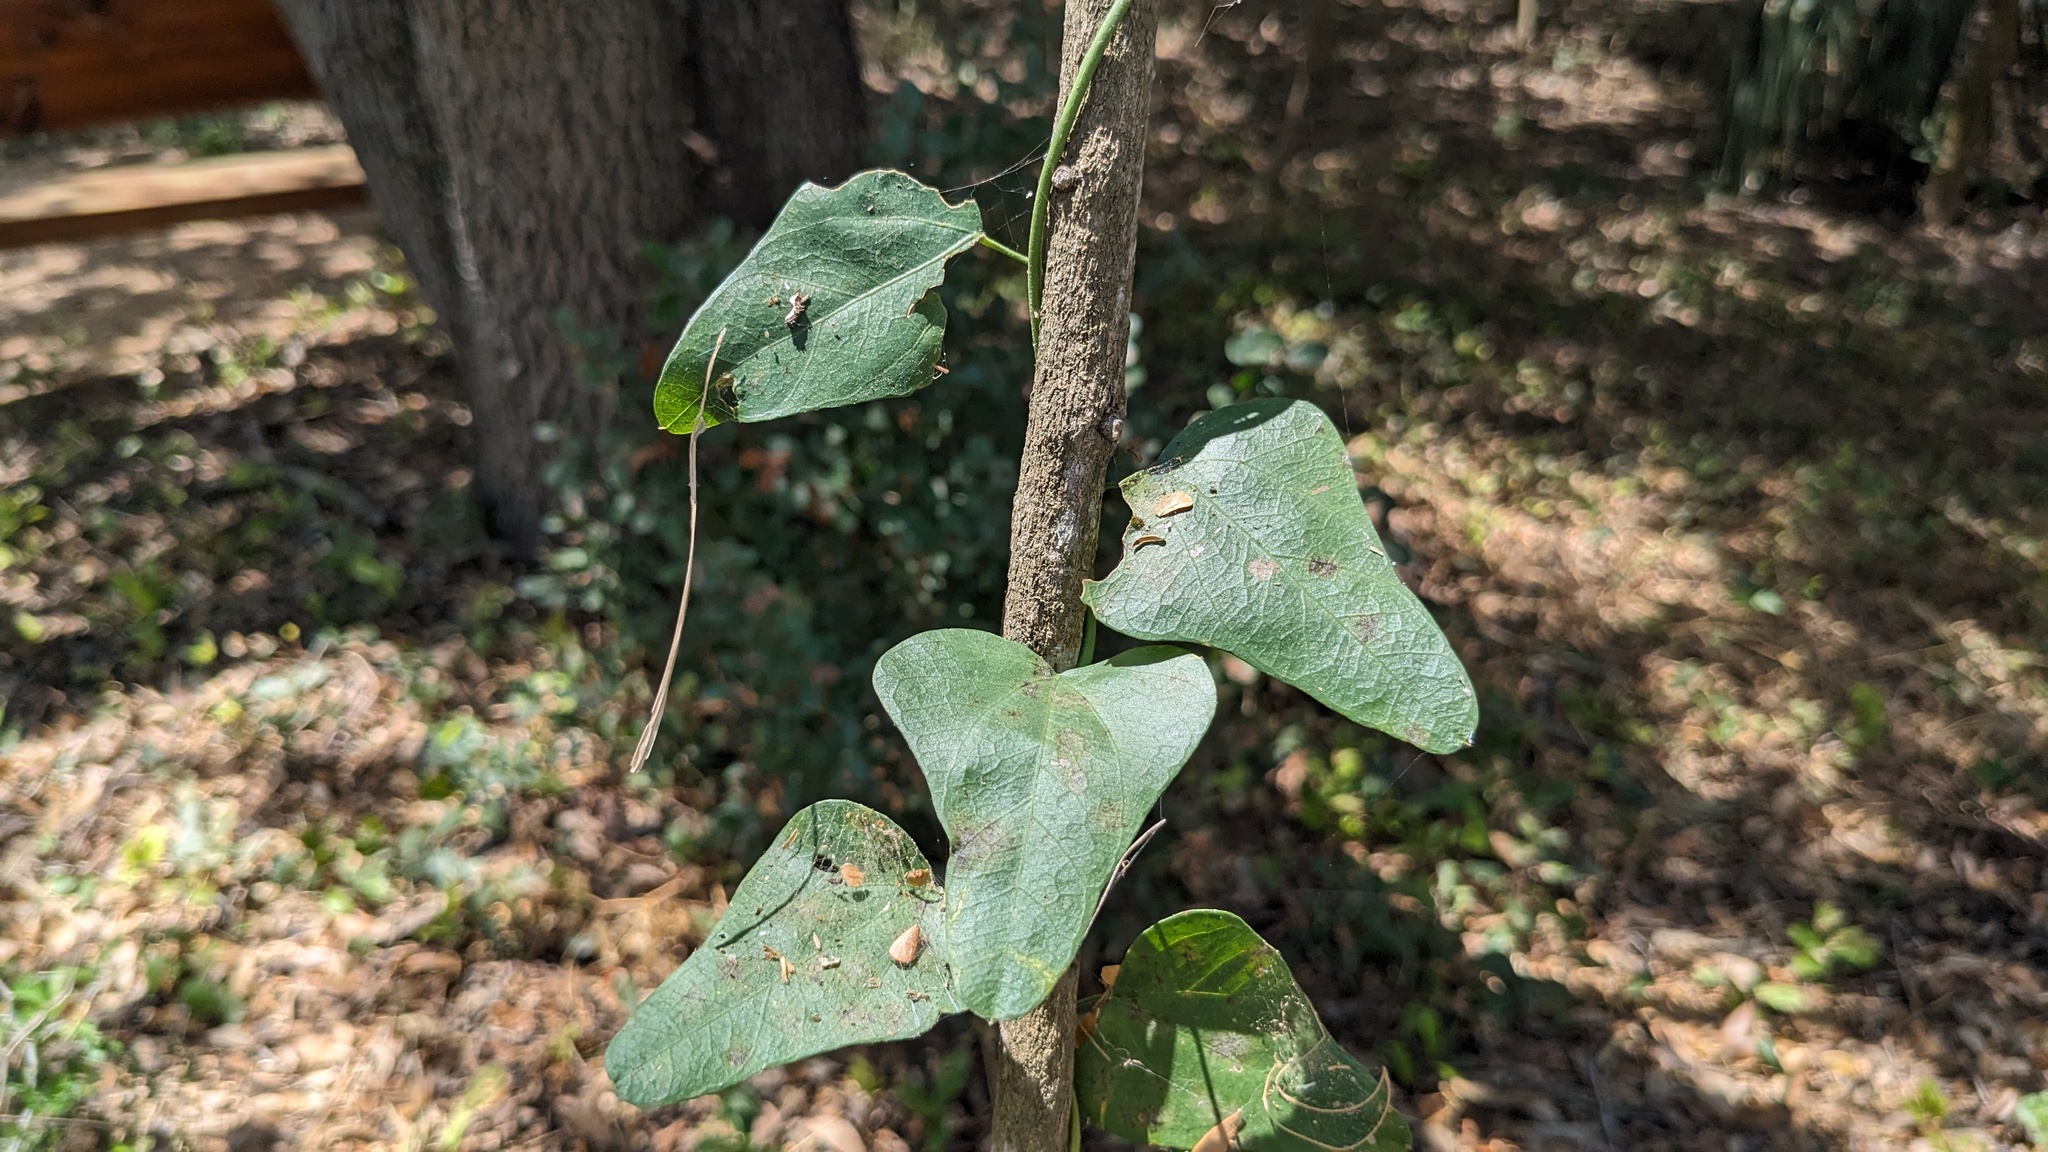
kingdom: Plantae
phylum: Tracheophyta
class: Magnoliopsida
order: Ranunculales
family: Menispermaceae
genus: Cocculus
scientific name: Cocculus diversifolius
